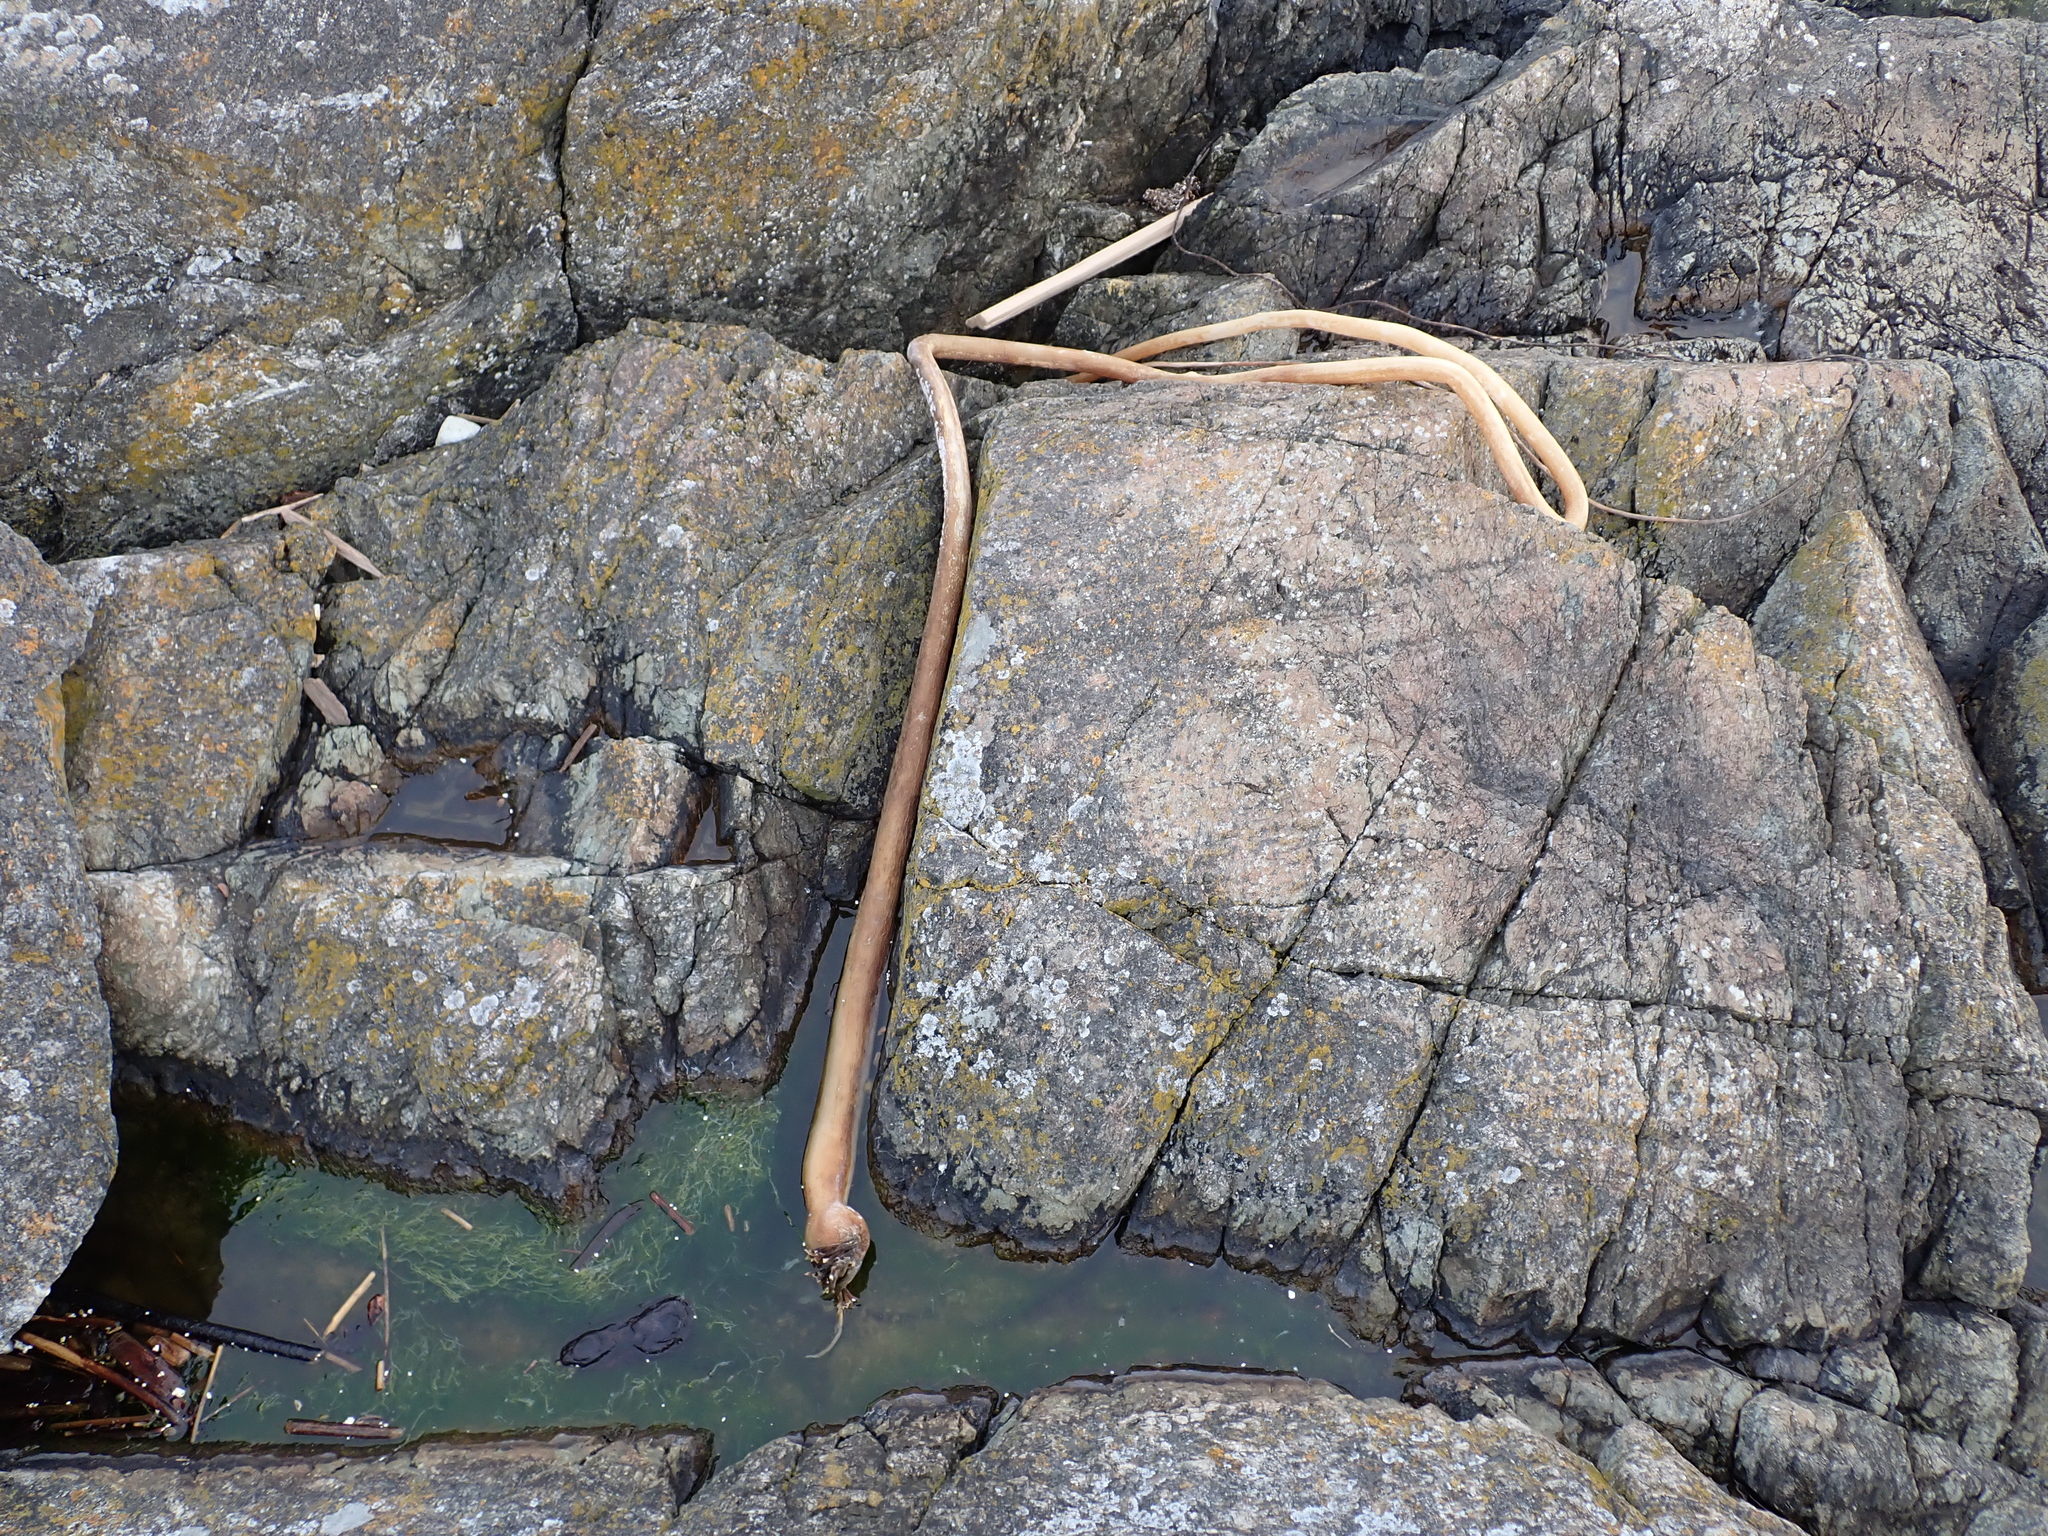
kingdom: Chromista
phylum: Ochrophyta
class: Phaeophyceae
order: Laminariales
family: Laminariaceae
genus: Nereocystis
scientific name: Nereocystis luetkeana
